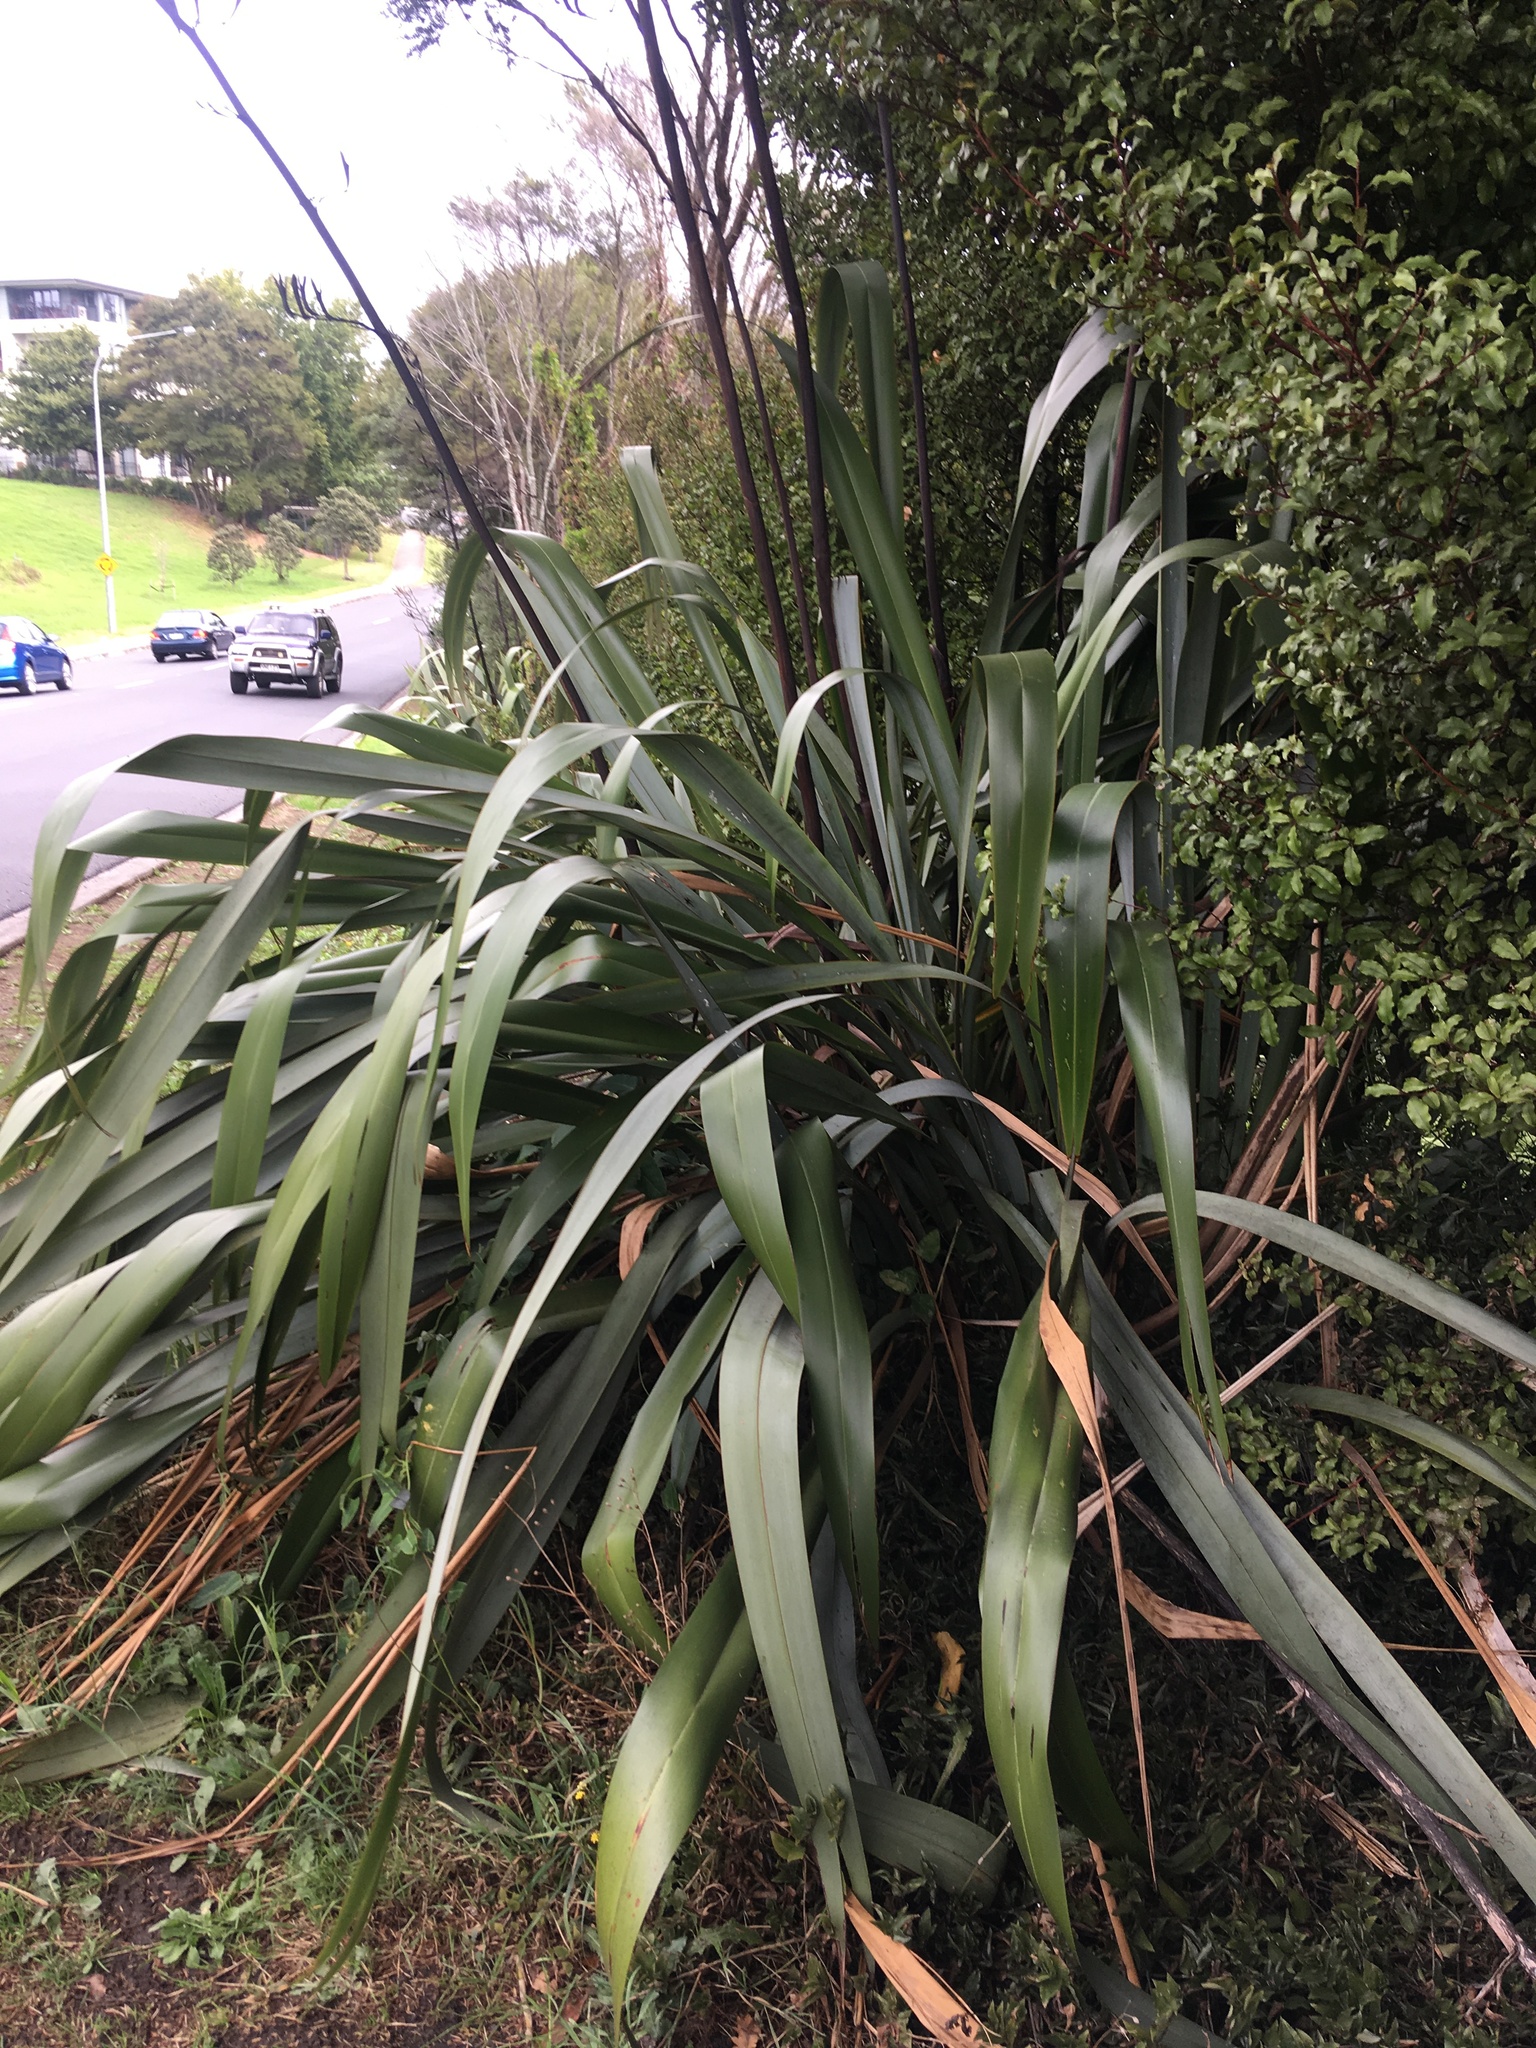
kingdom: Plantae
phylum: Tracheophyta
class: Liliopsida
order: Asparagales
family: Asphodelaceae
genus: Phormium
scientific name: Phormium tenax
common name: New zealand flax
